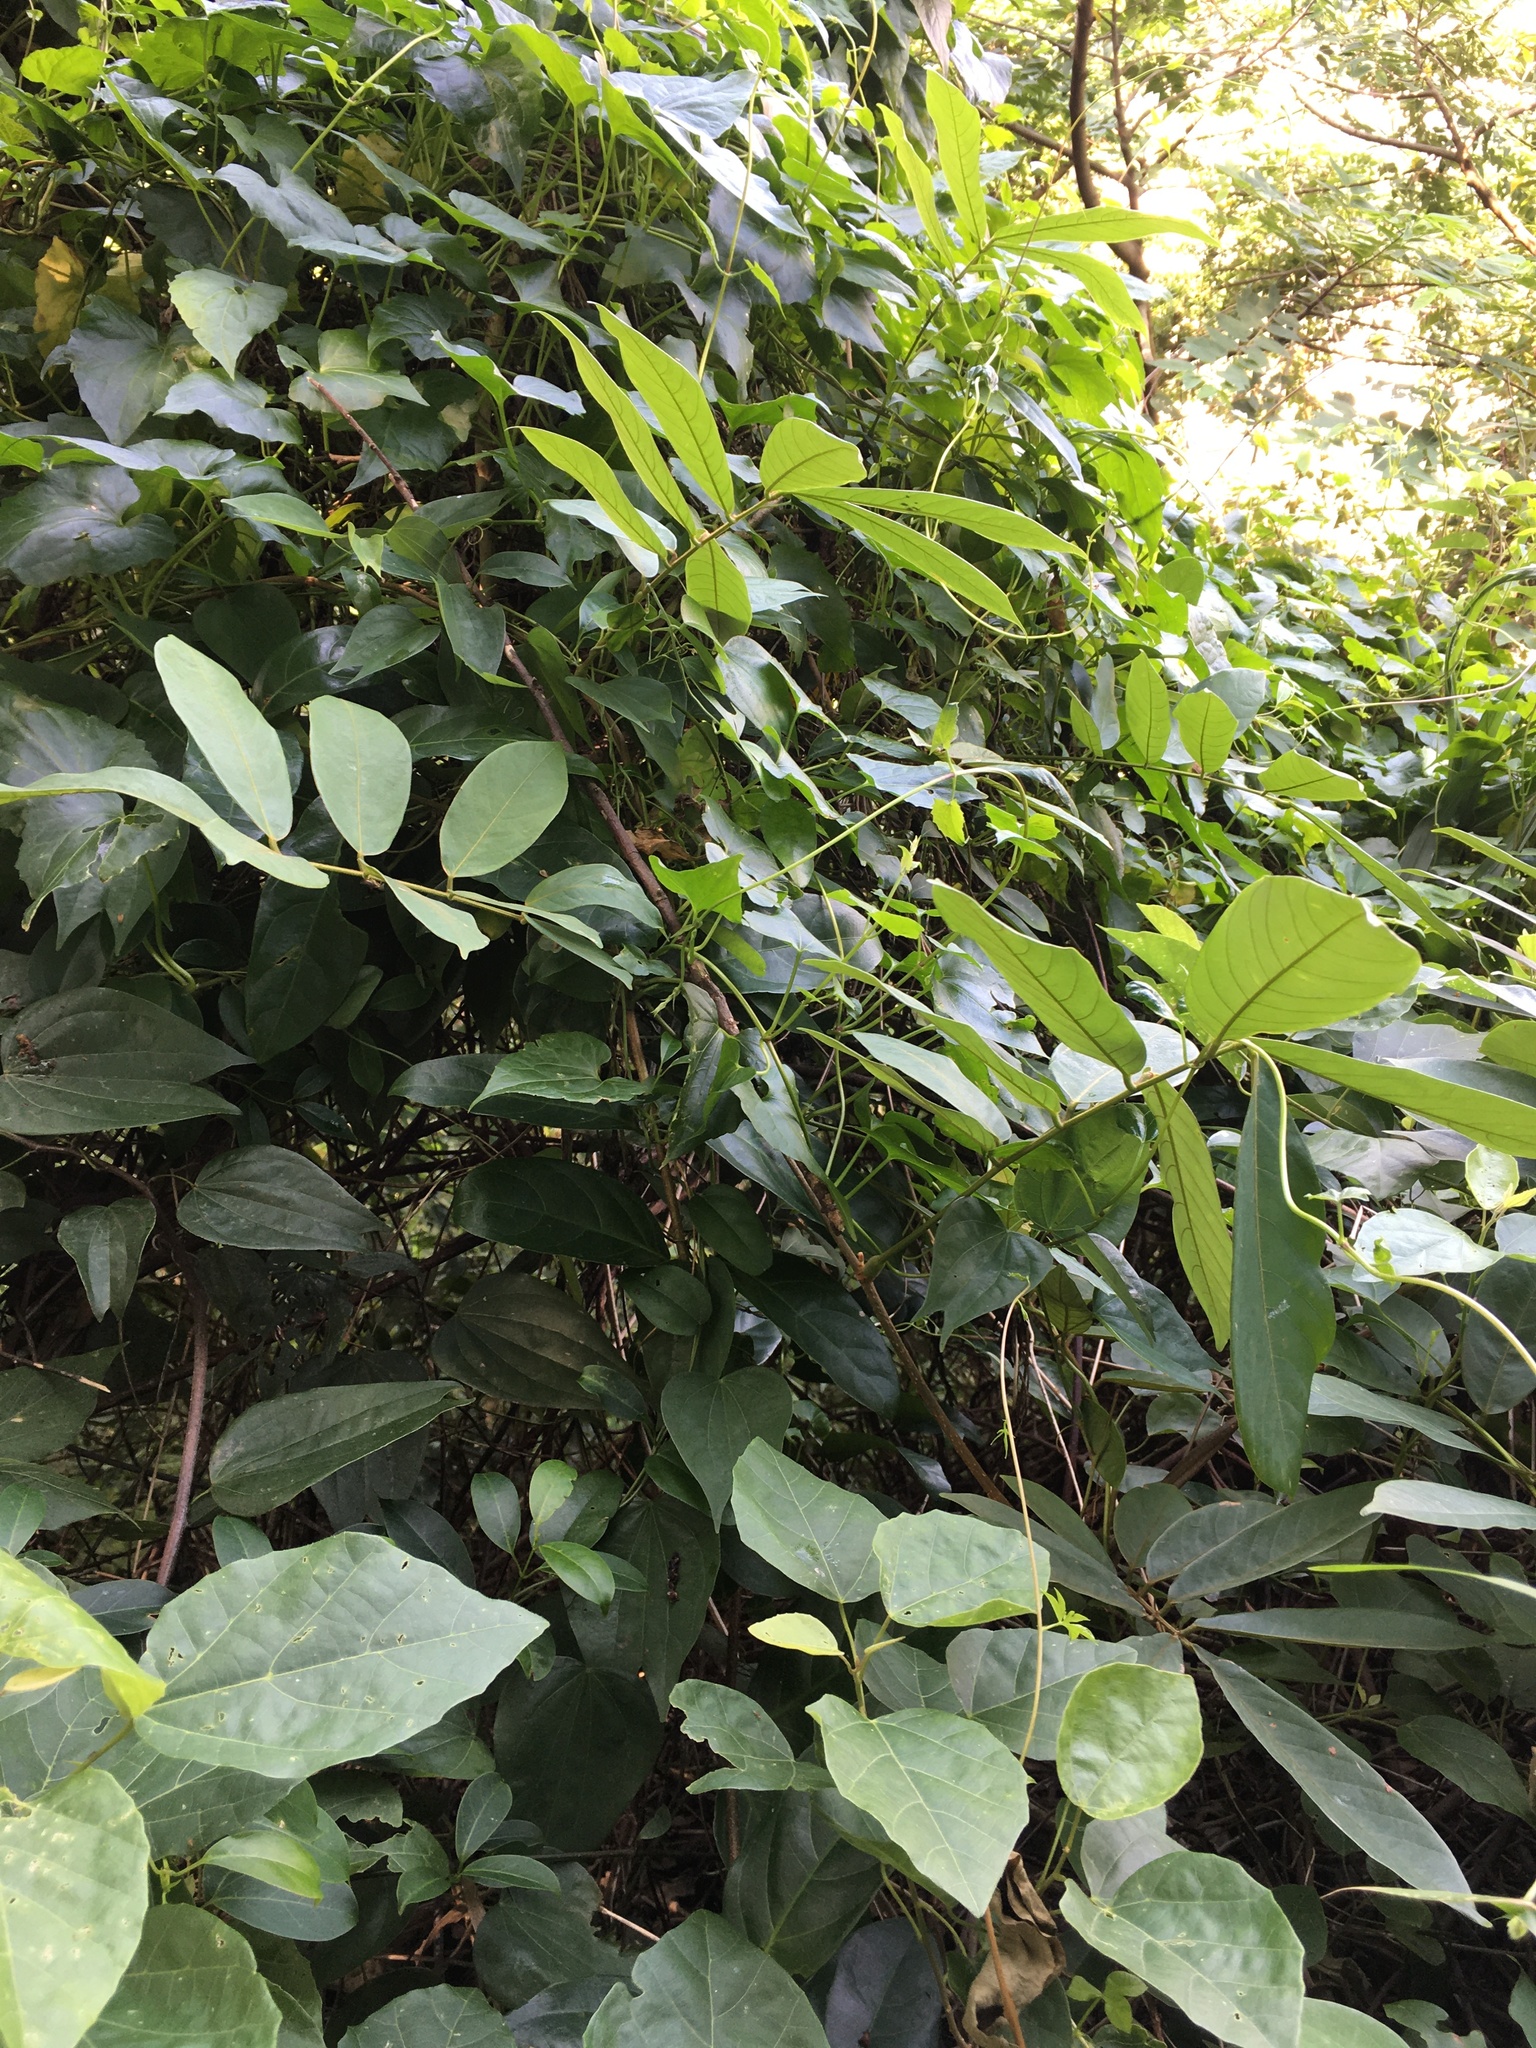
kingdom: Plantae
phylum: Tracheophyta
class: Magnoliopsida
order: Fabales
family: Fabaceae
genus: Millettia
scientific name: Millettia pachycarpa
